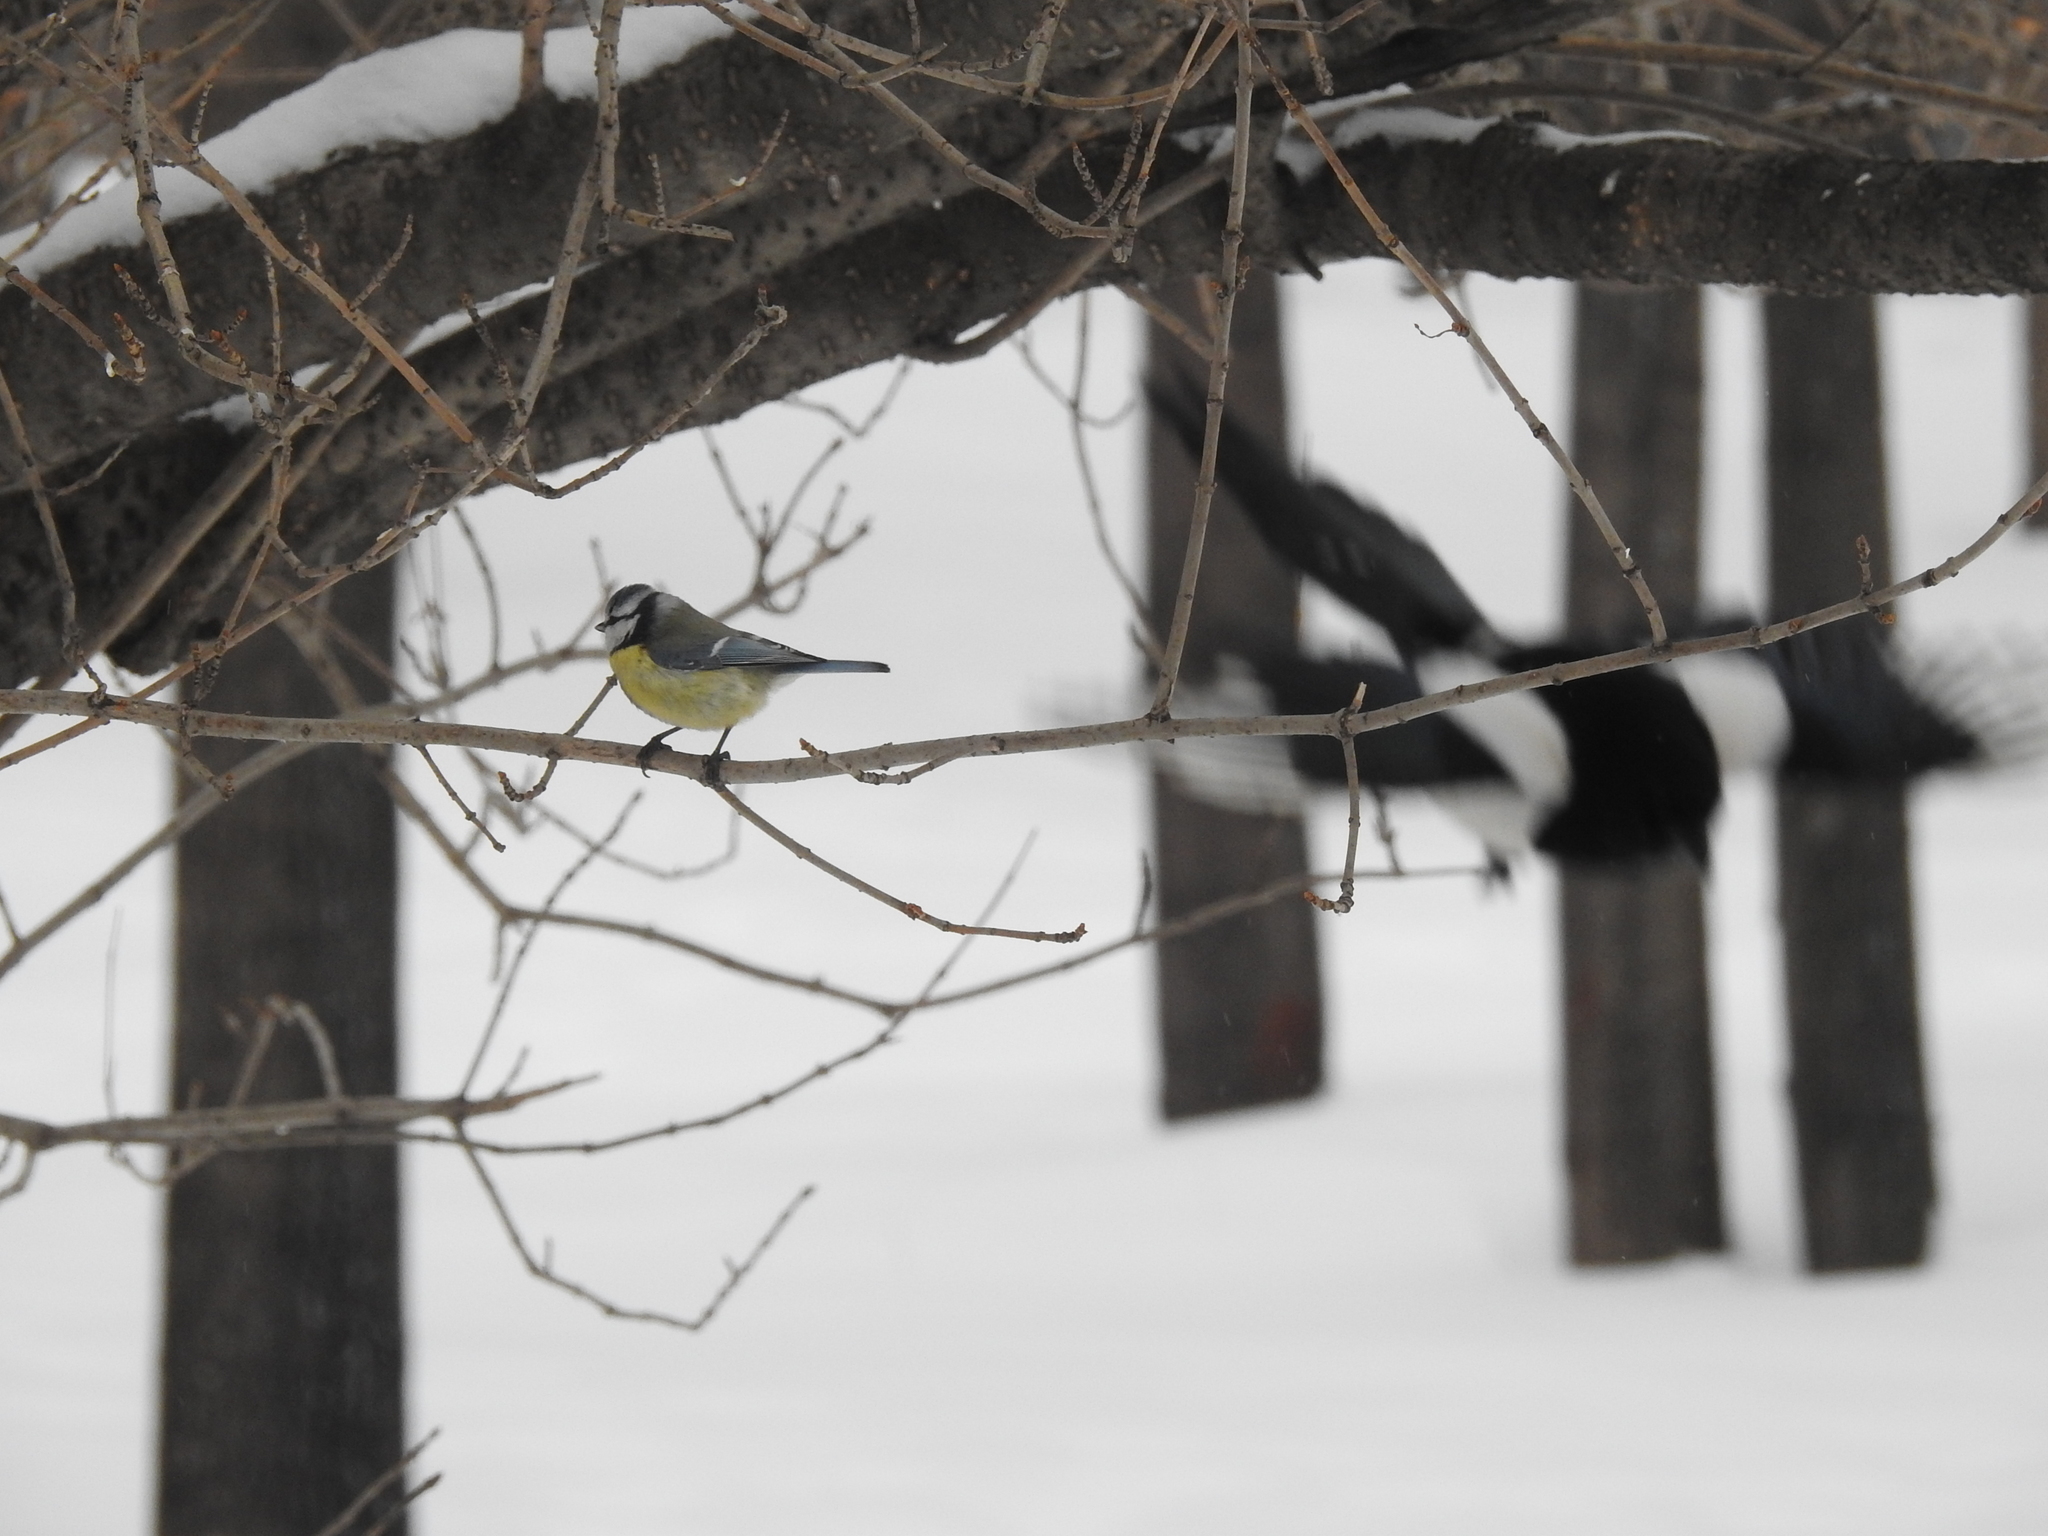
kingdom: Animalia
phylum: Chordata
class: Aves
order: Passeriformes
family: Paridae
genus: Cyanistes
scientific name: Cyanistes caeruleus
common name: Eurasian blue tit
